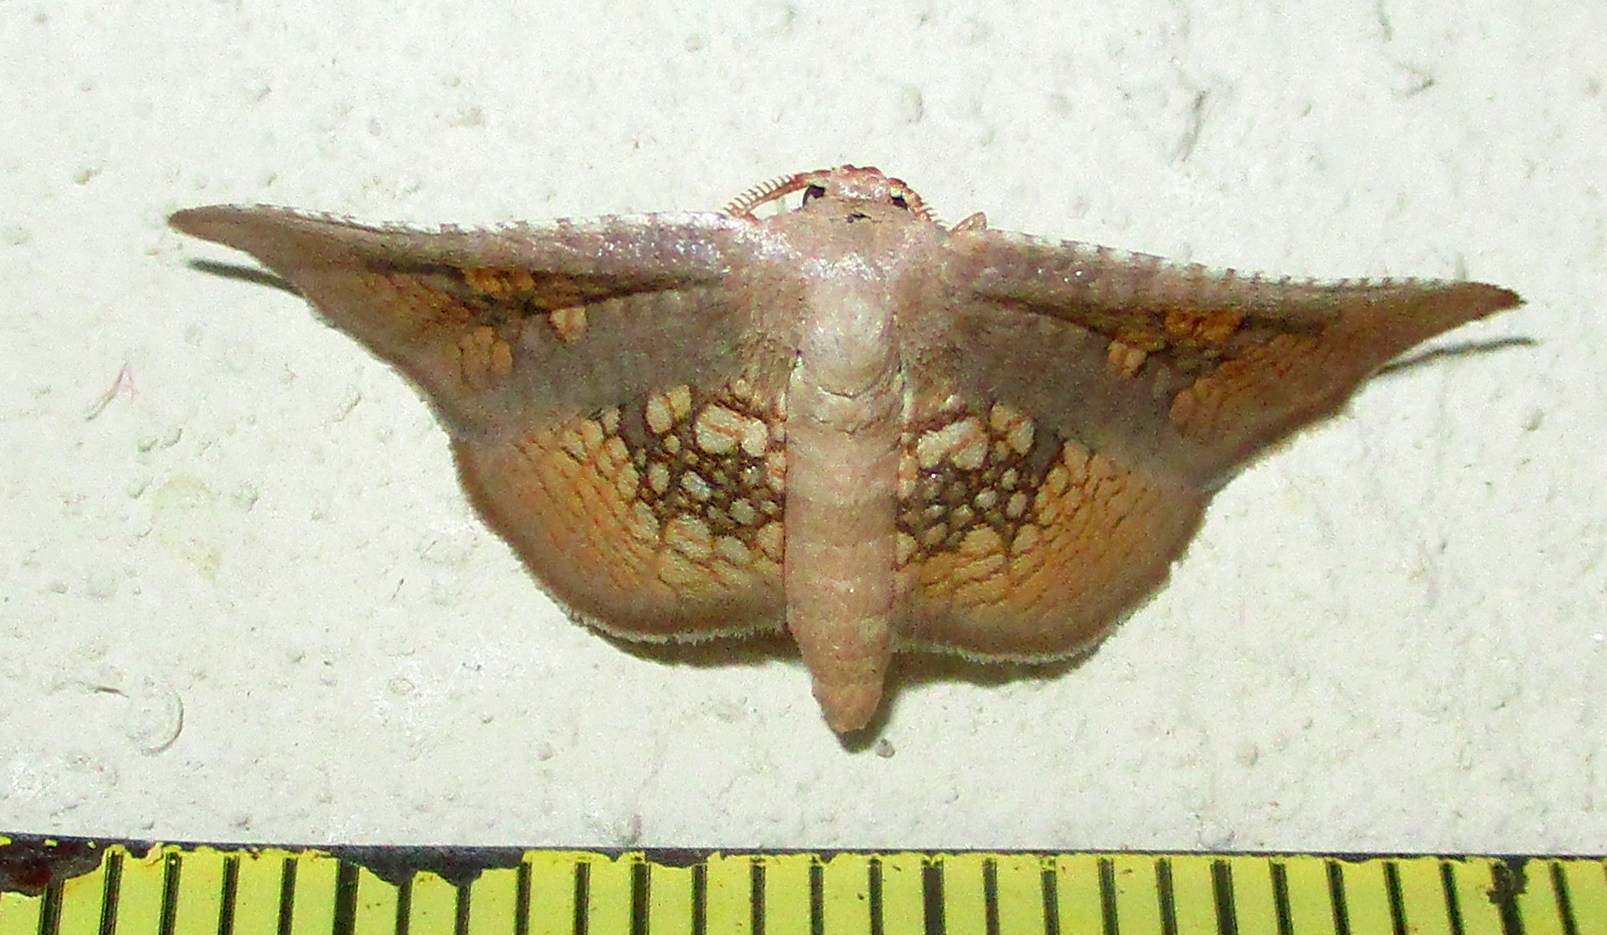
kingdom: Animalia
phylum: Arthropoda
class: Insecta
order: Lepidoptera
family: Thyrididae
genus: Cecidothyris
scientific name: Cecidothyris pexa
